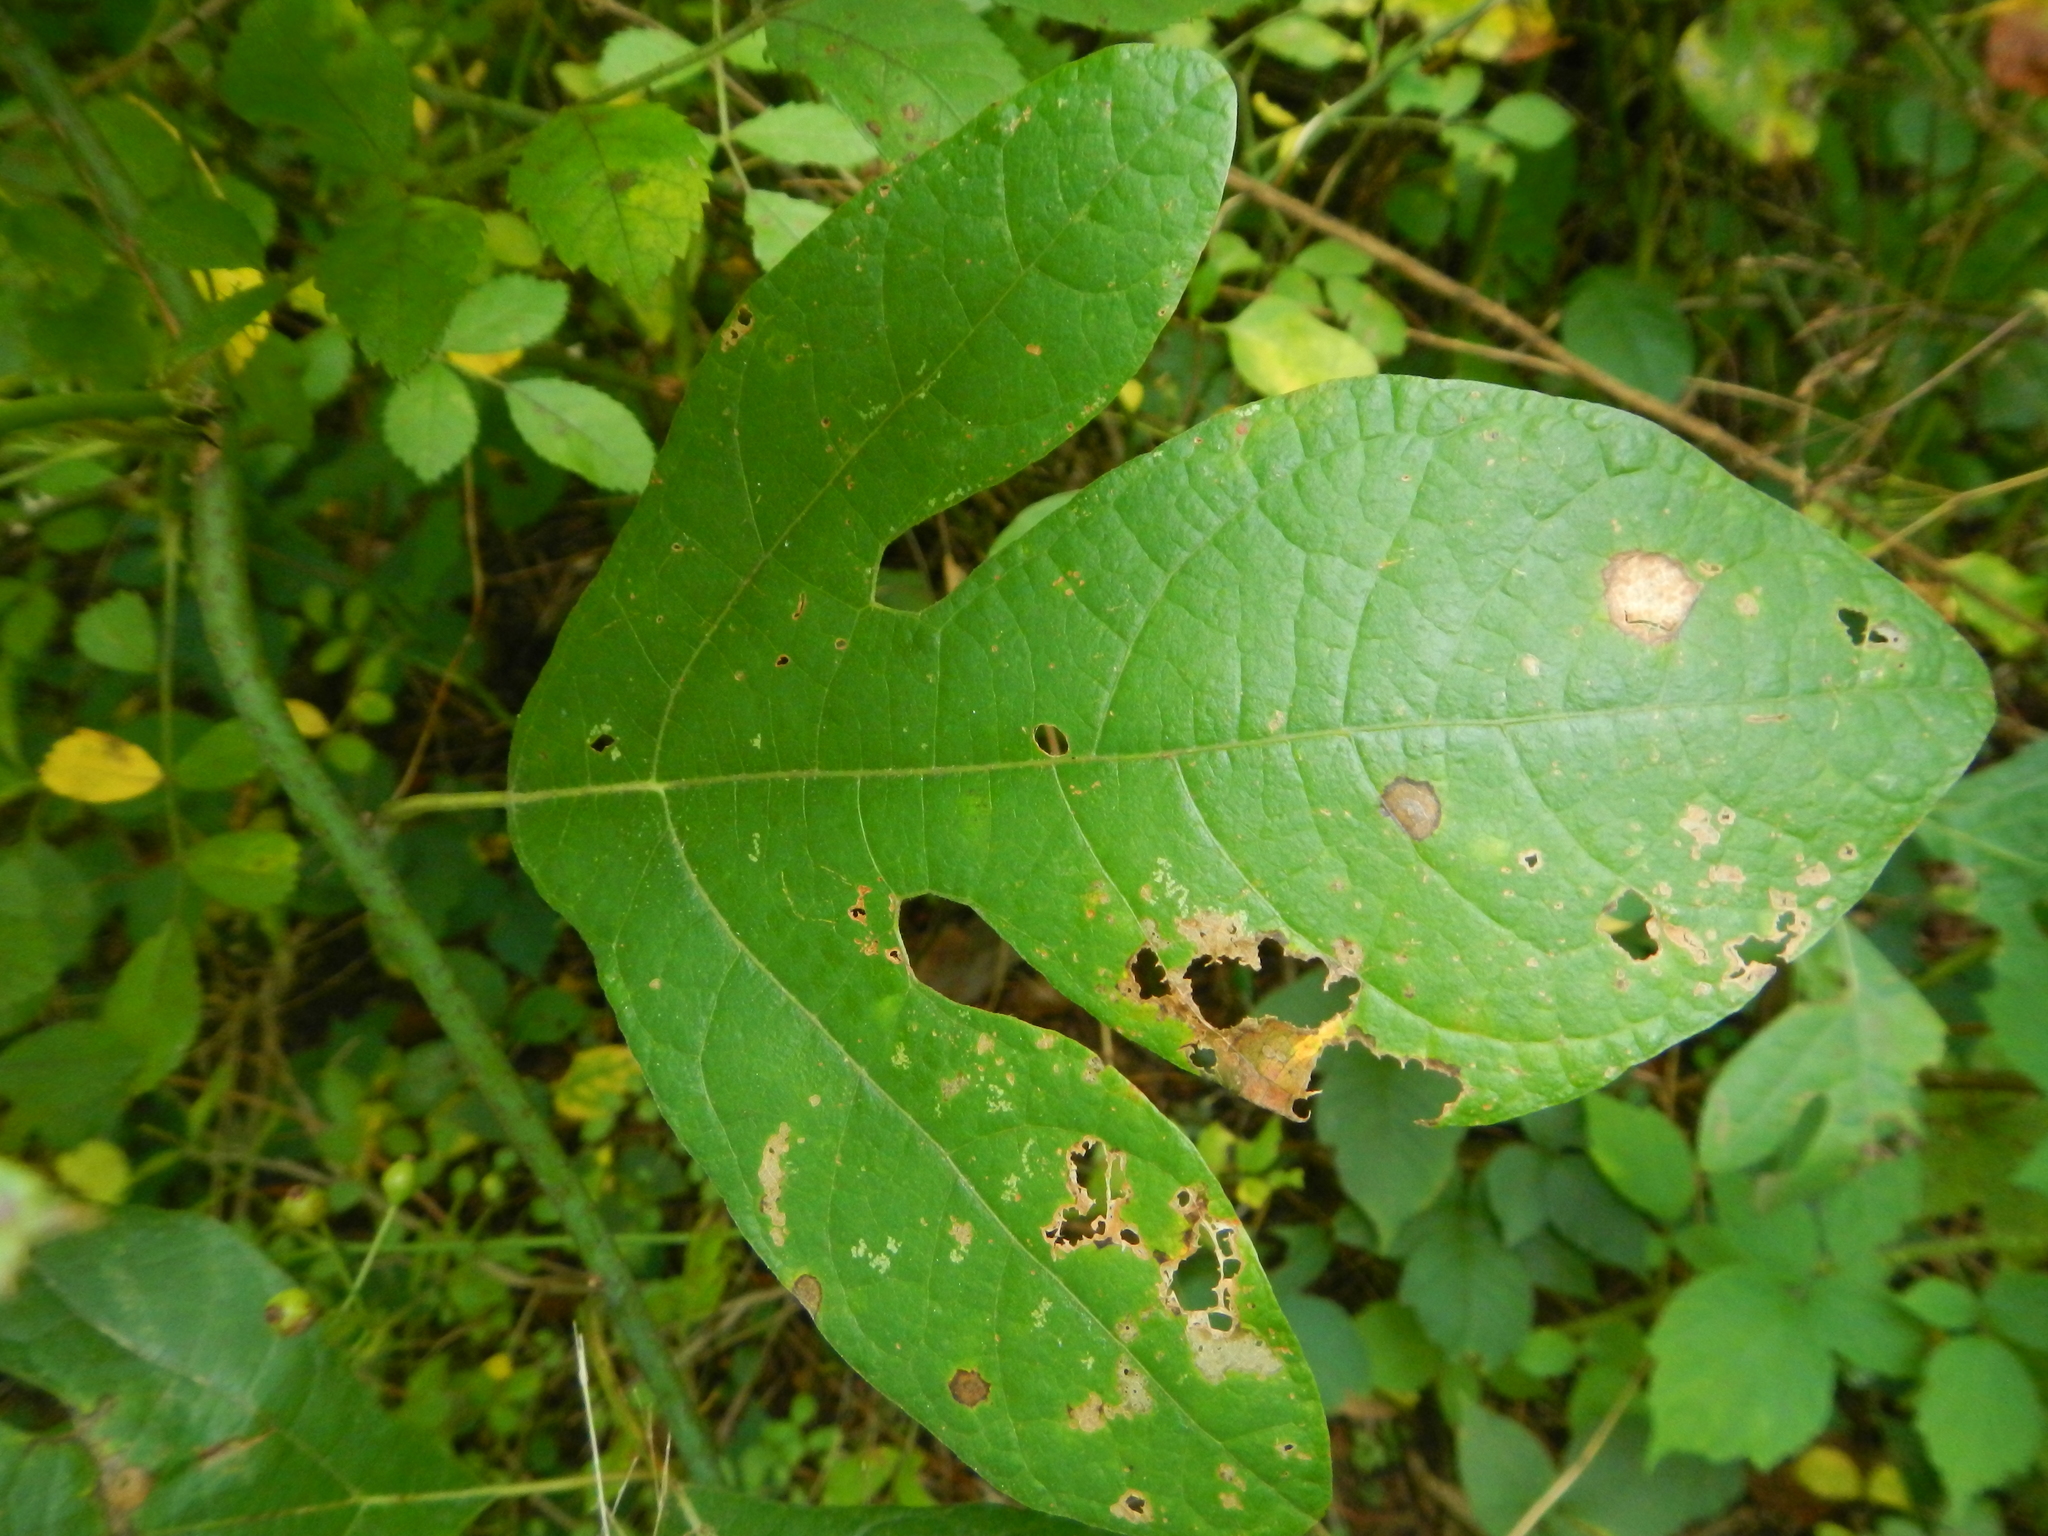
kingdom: Plantae
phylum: Tracheophyta
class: Magnoliopsida
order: Laurales
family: Lauraceae
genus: Sassafras
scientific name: Sassafras albidum
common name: Sassafras
